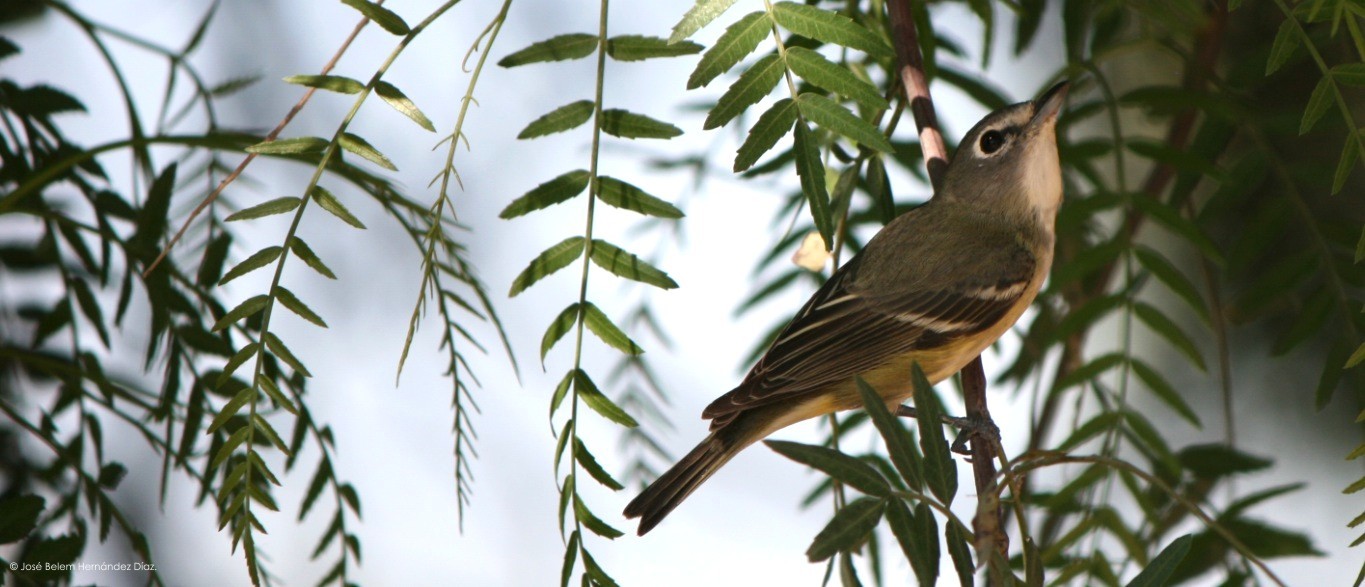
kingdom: Animalia
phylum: Chordata
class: Aves
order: Passeriformes
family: Vireonidae
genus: Vireo
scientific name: Vireo cassinii
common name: Cassin's vireo
